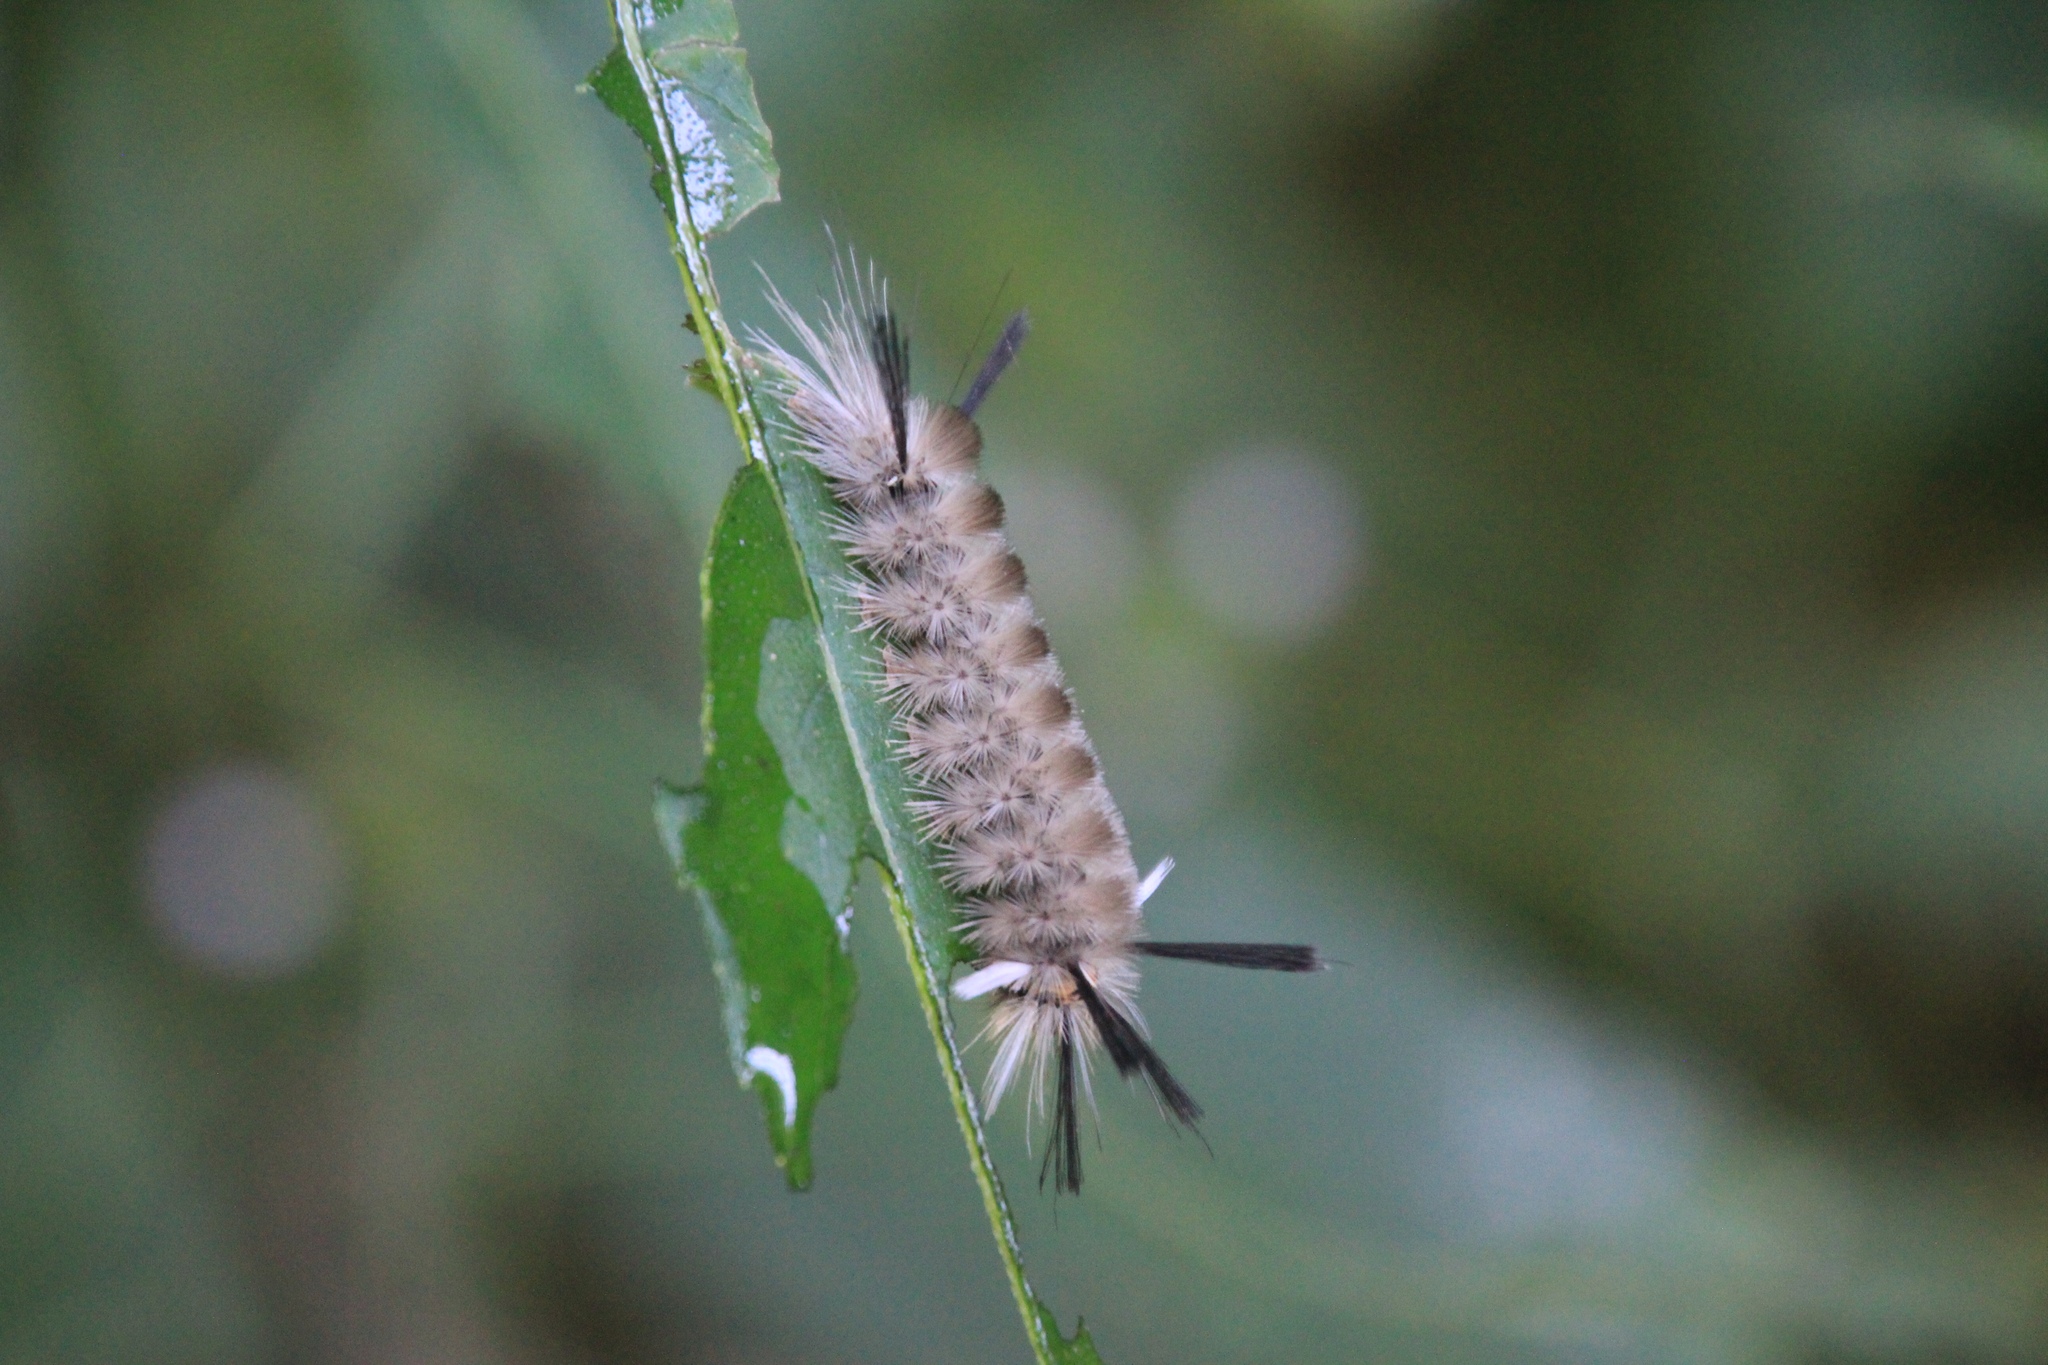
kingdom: Animalia
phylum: Arthropoda
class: Insecta
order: Lepidoptera
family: Erebidae
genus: Halysidota
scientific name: Halysidota tessellaris
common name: Banded tussock moth
